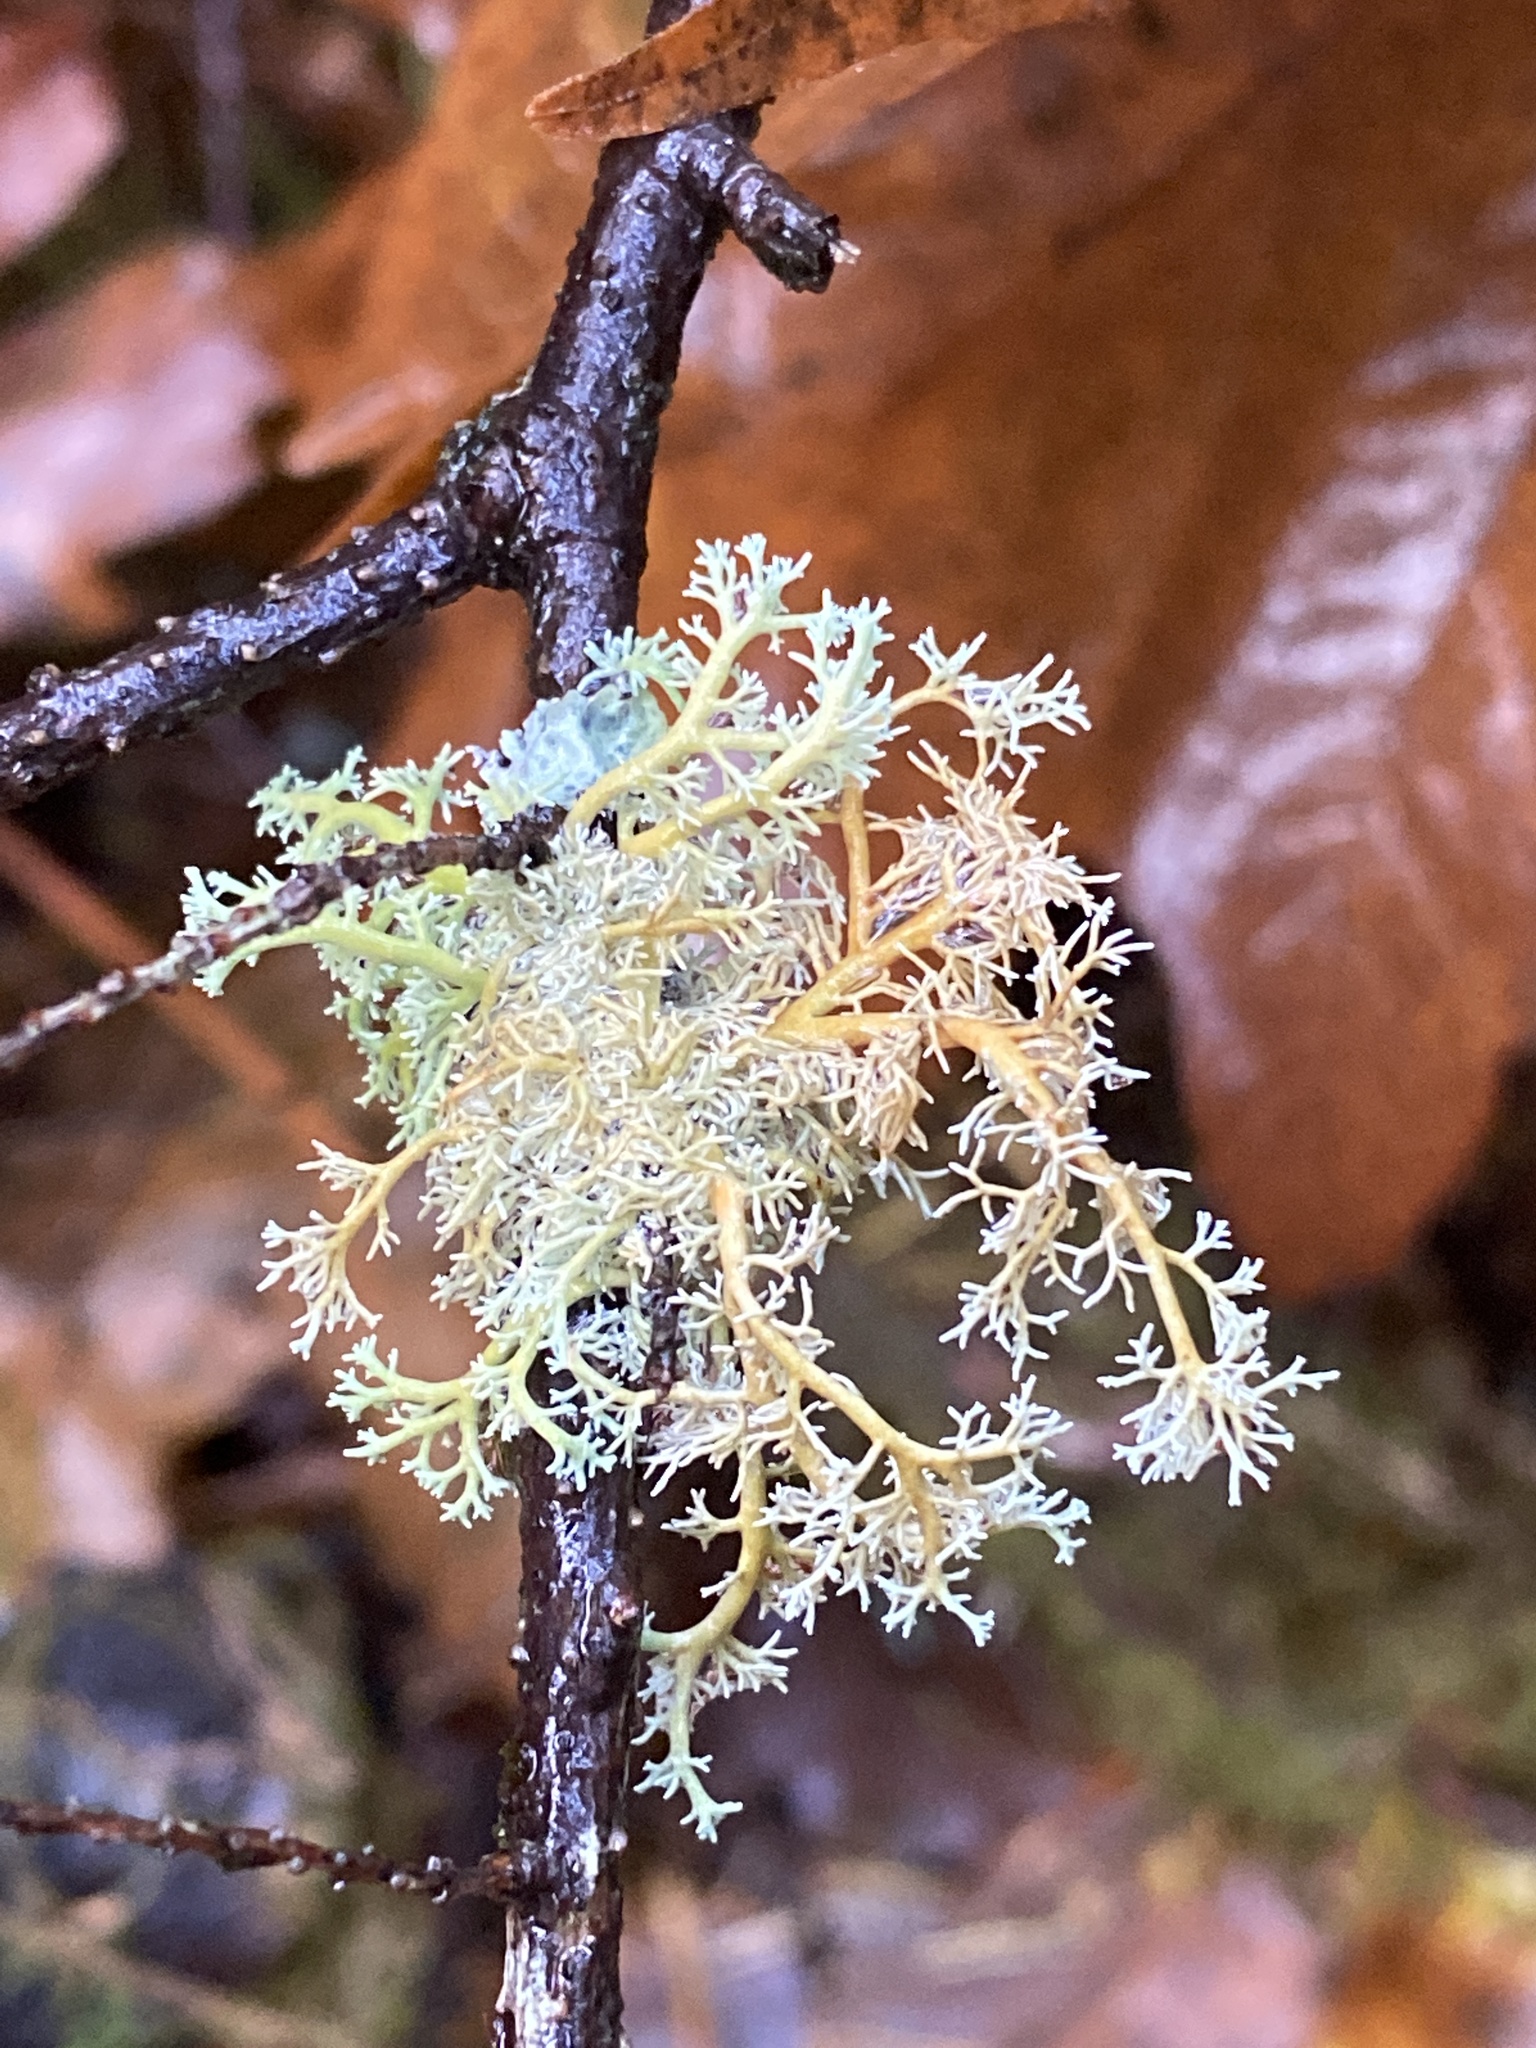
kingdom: Fungi
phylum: Ascomycota
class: Lecanoromycetes
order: Lecanorales
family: Sphaerophoraceae
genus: Sphaerophorus
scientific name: Sphaerophorus globosus
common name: Globe ball lichen
